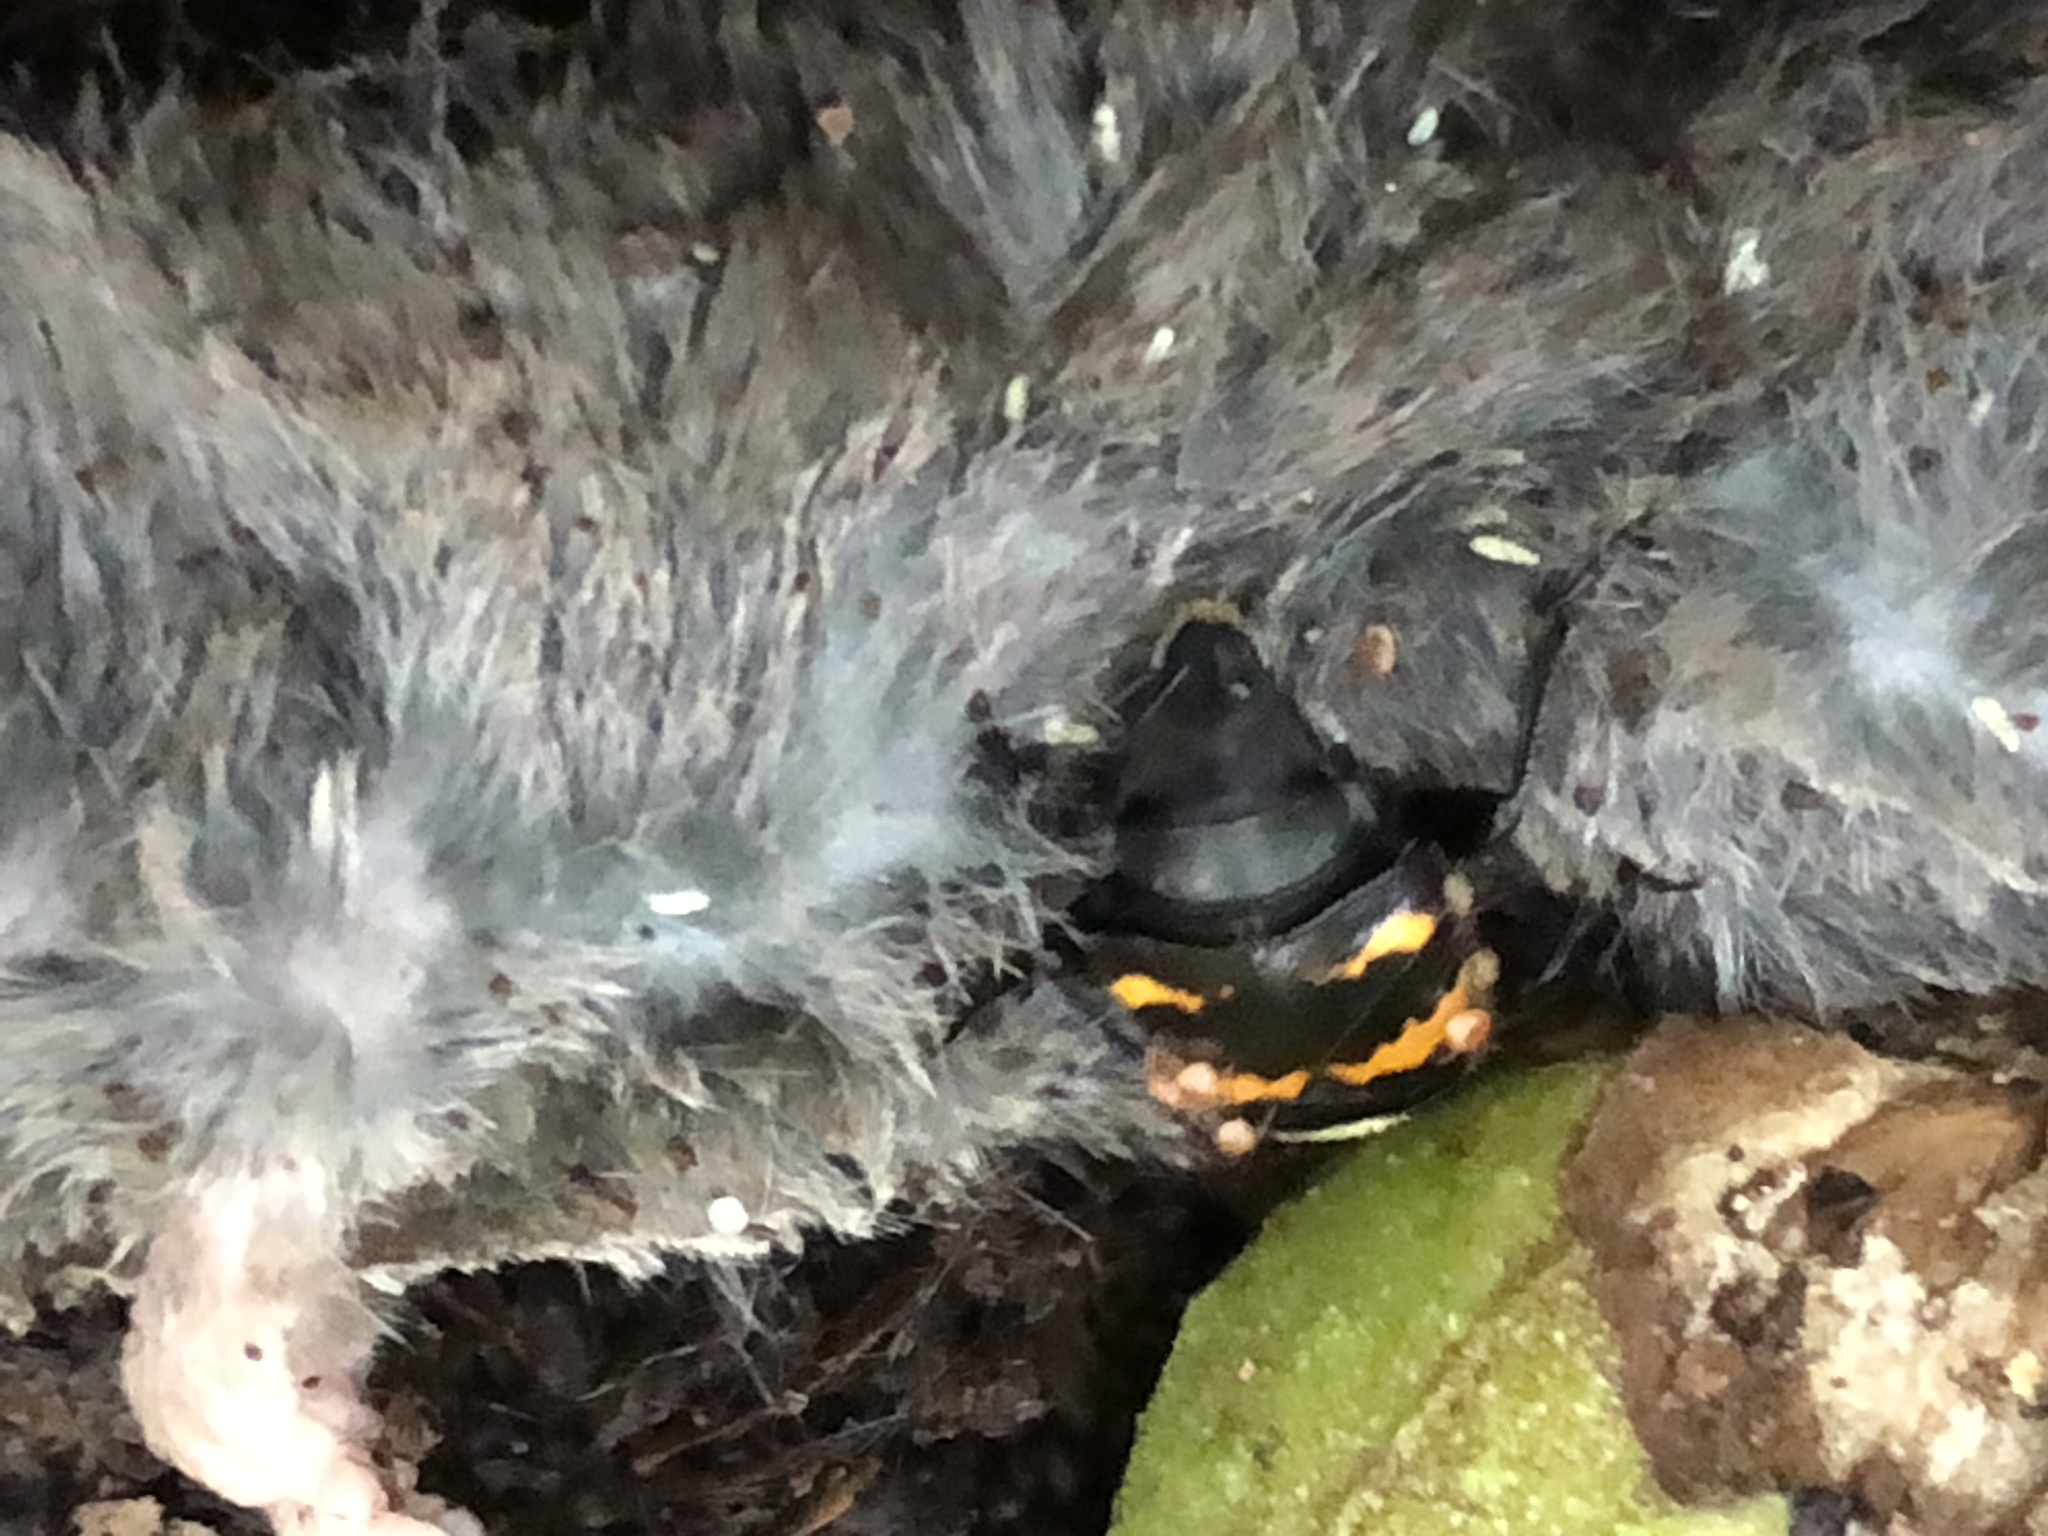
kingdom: Animalia
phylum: Arthropoda
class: Insecta
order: Coleoptera
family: Staphylinidae
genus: Nicrophorus
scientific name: Nicrophorus tomentosus
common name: Tomentose burying beetle
